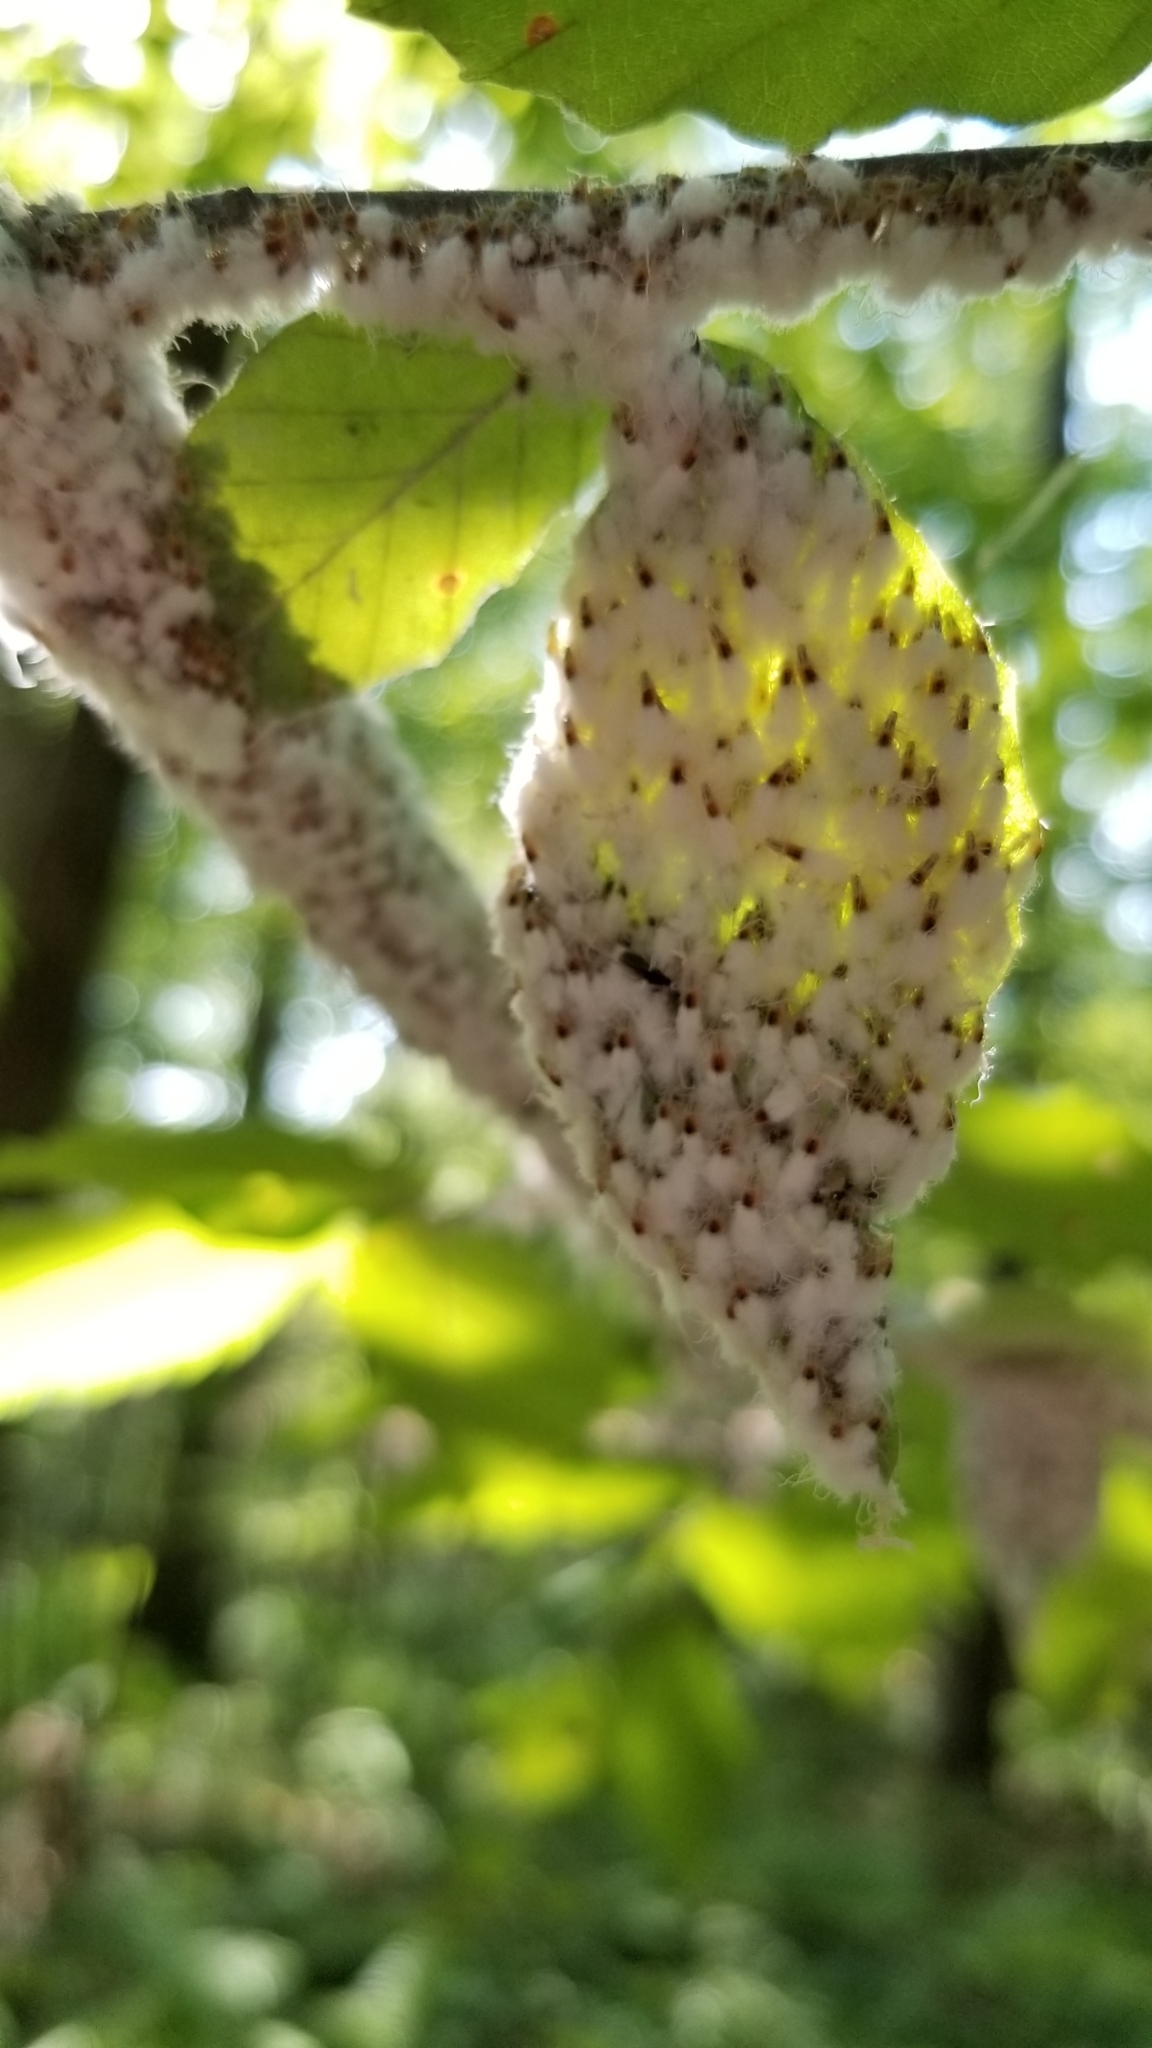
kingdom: Animalia
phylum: Arthropoda
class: Insecta
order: Hemiptera
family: Aphididae
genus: Grylloprociphilus
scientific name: Grylloprociphilus imbricator
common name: Beech blight aphid
